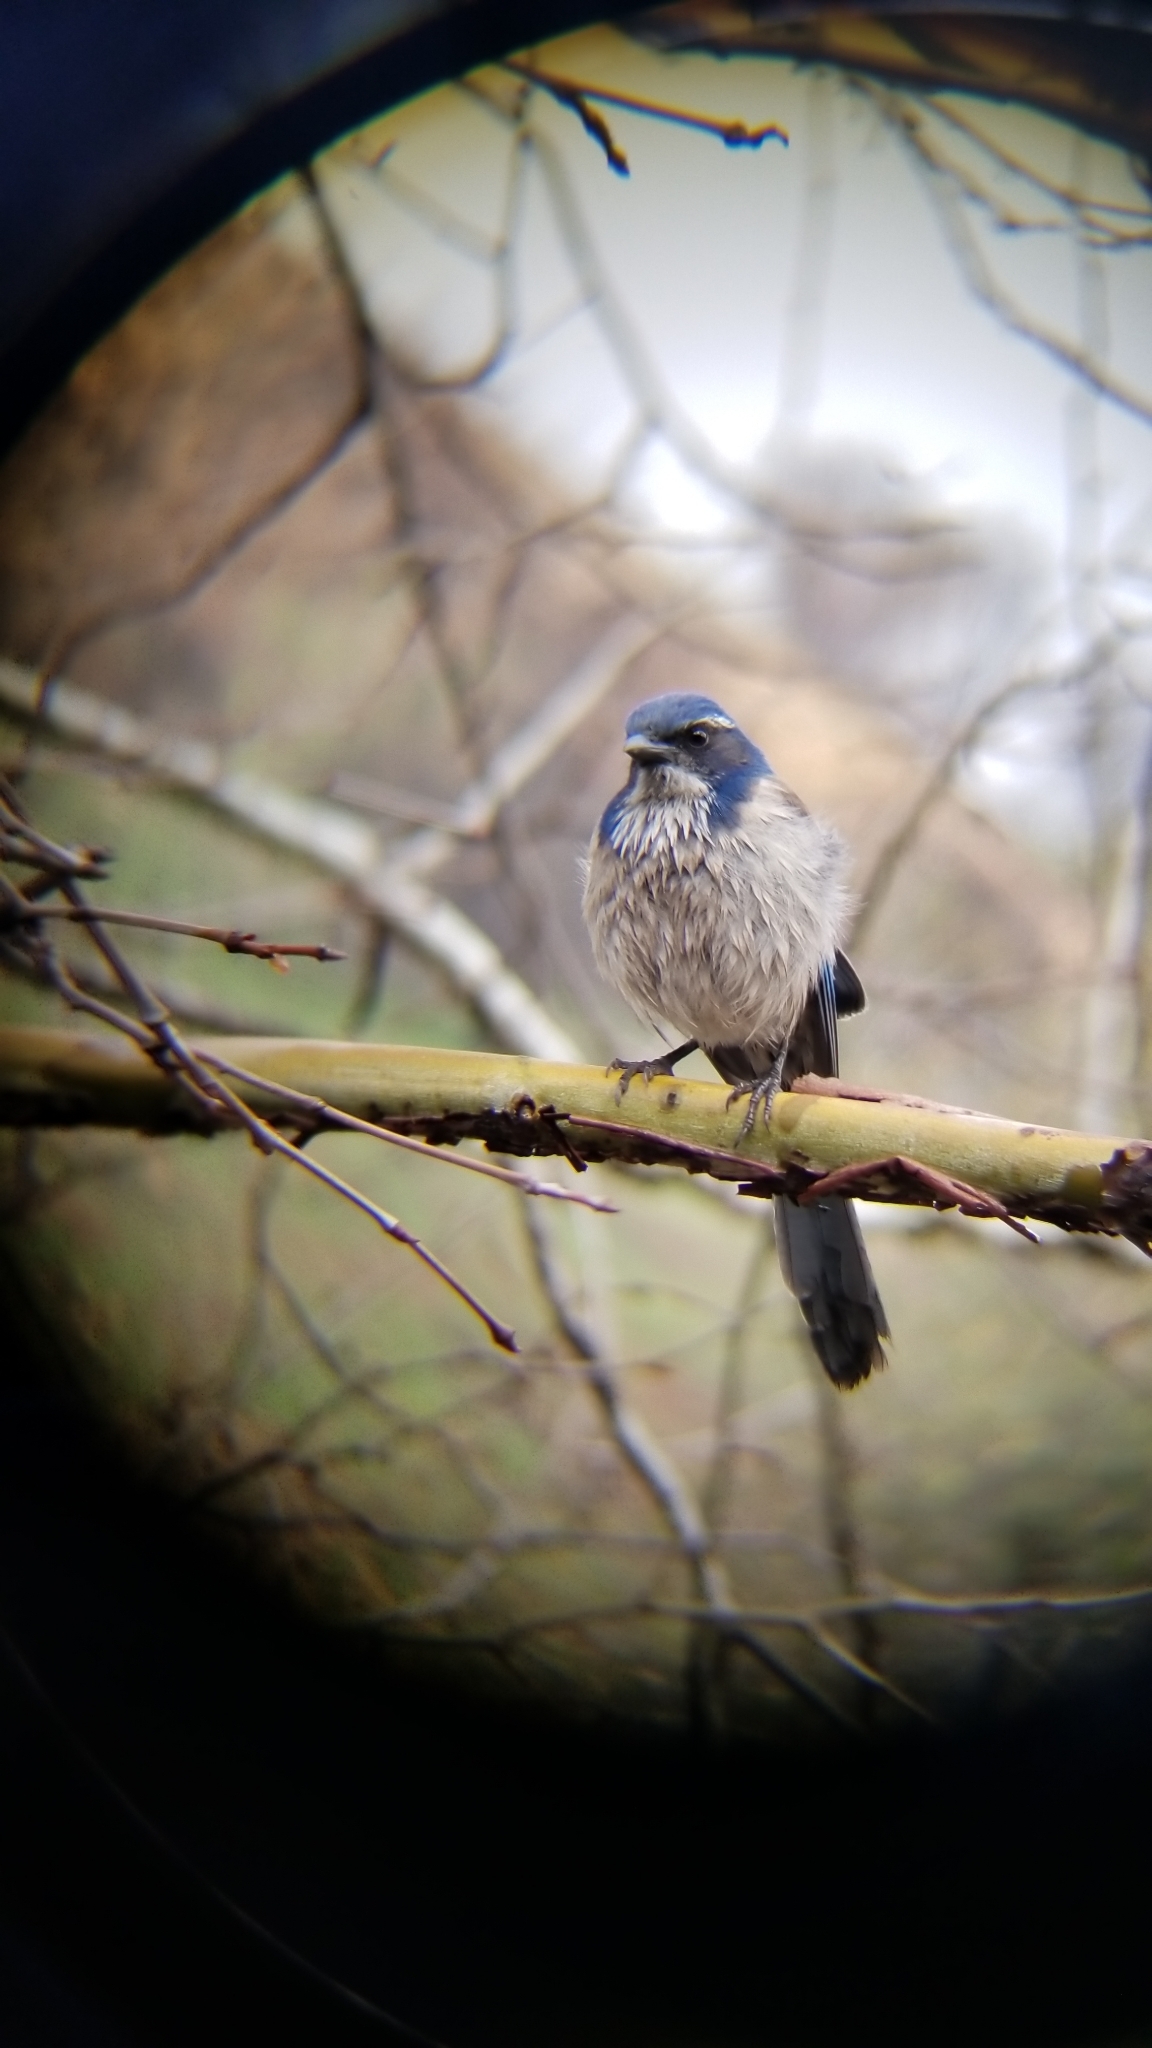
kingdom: Animalia
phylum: Chordata
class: Aves
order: Passeriformes
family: Corvidae
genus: Aphelocoma
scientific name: Aphelocoma californica
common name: California scrub-jay
